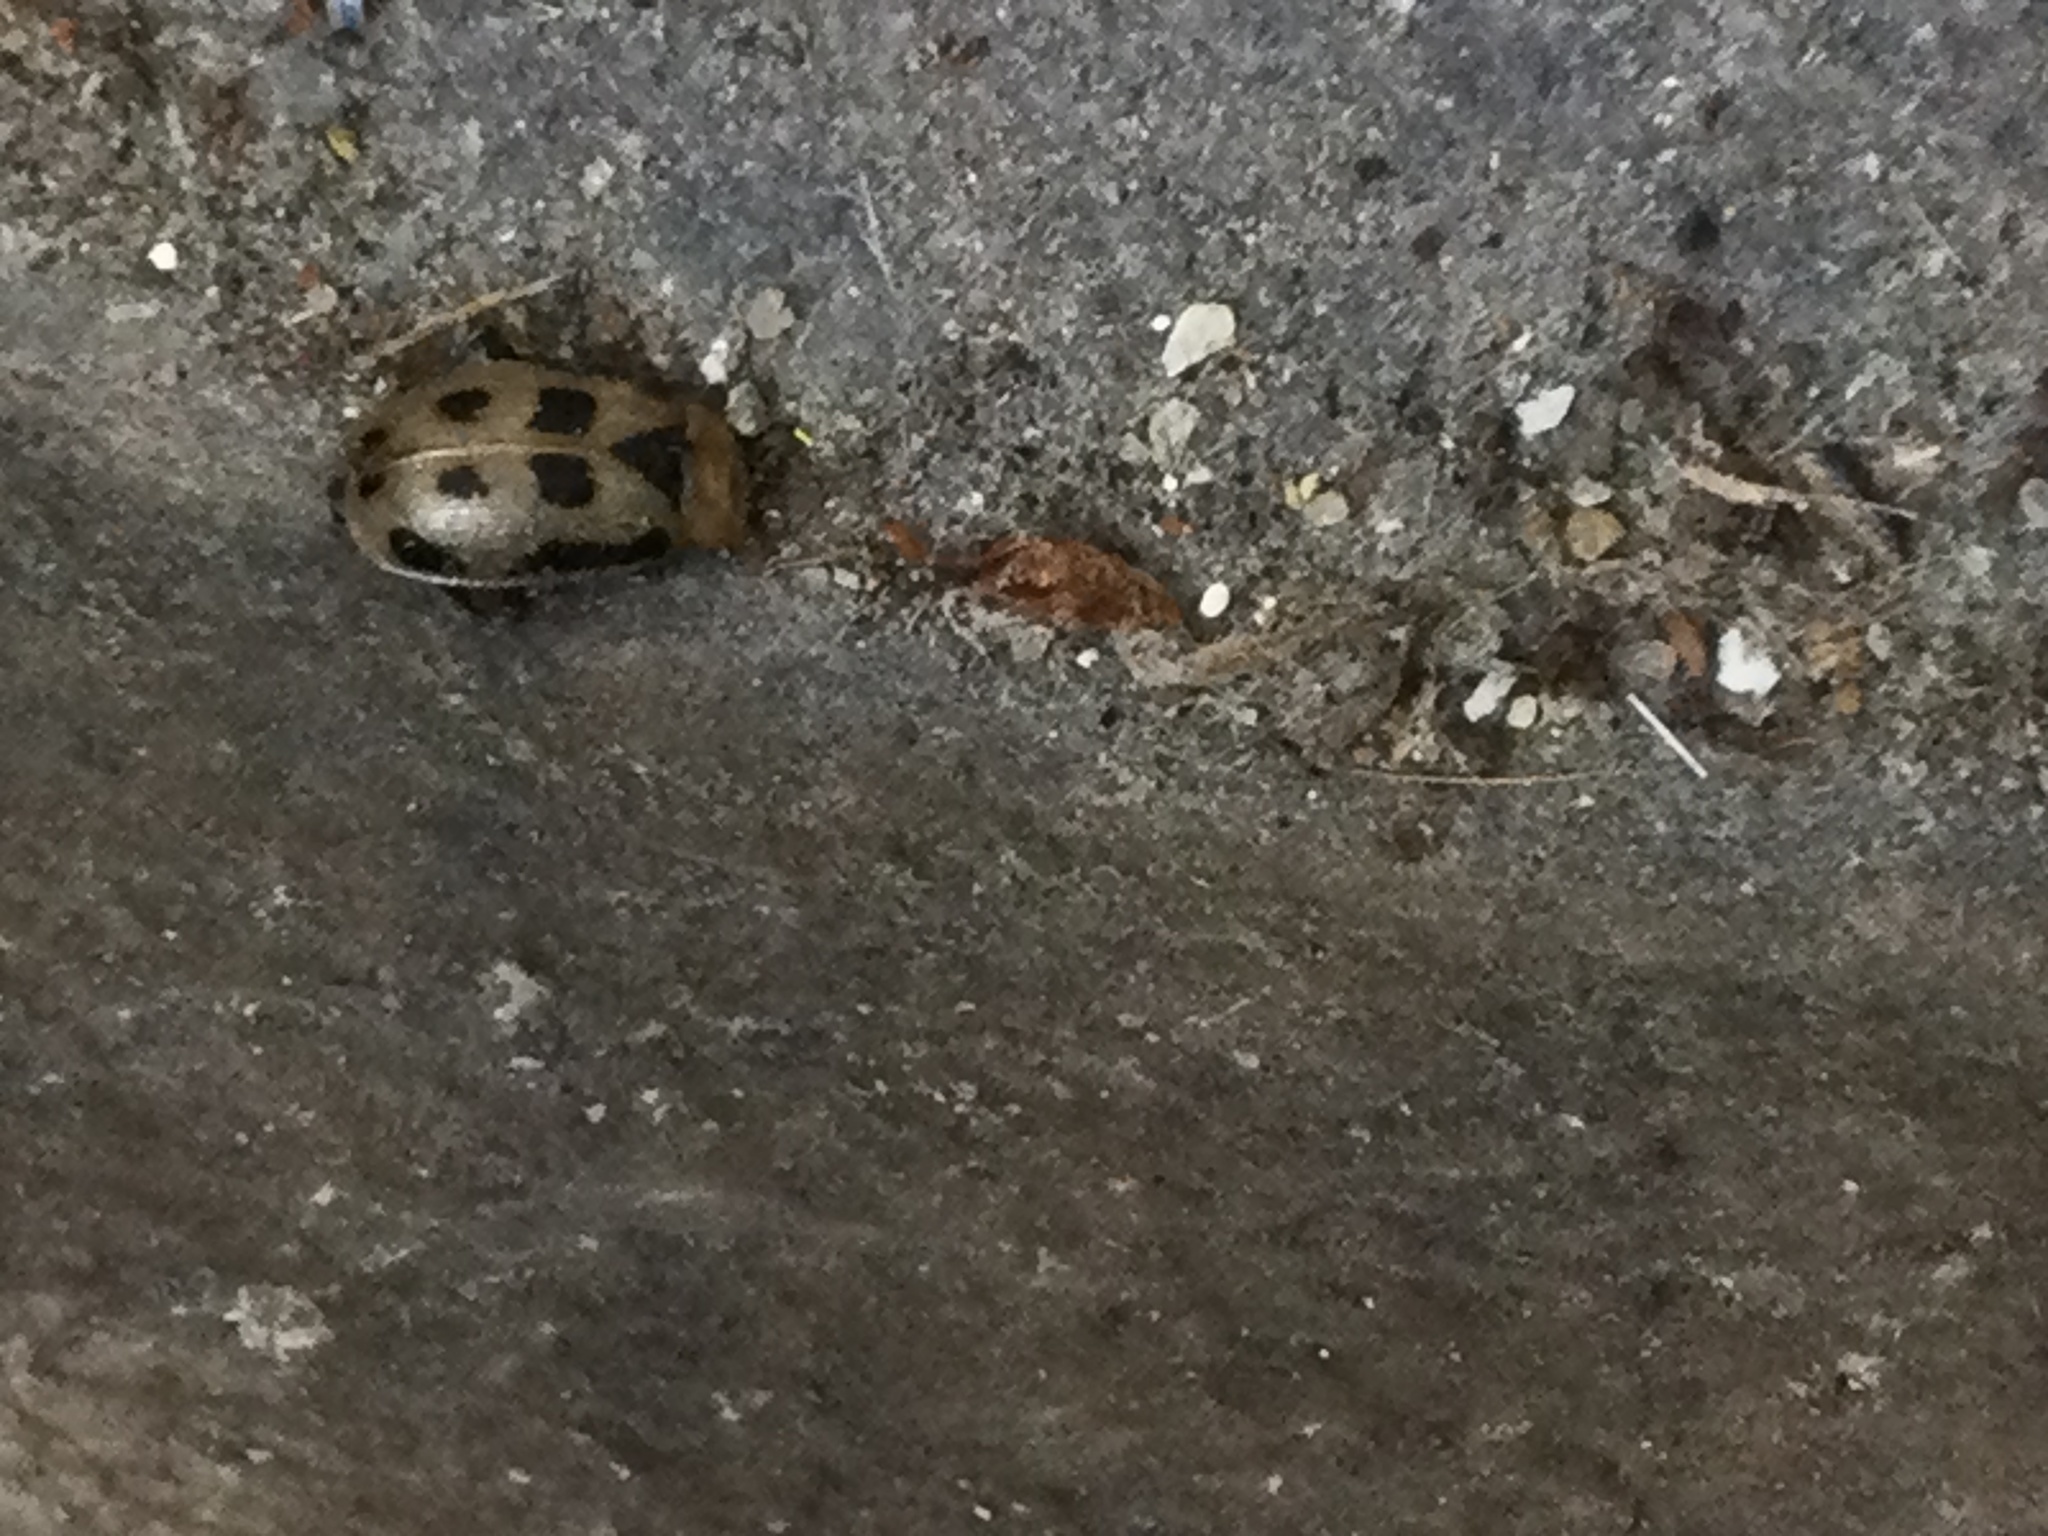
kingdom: Animalia
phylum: Arthropoda
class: Insecta
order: Coleoptera
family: Chrysomelidae
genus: Cerotoma
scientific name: Cerotoma trifurcata
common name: Bean leaf beetle
